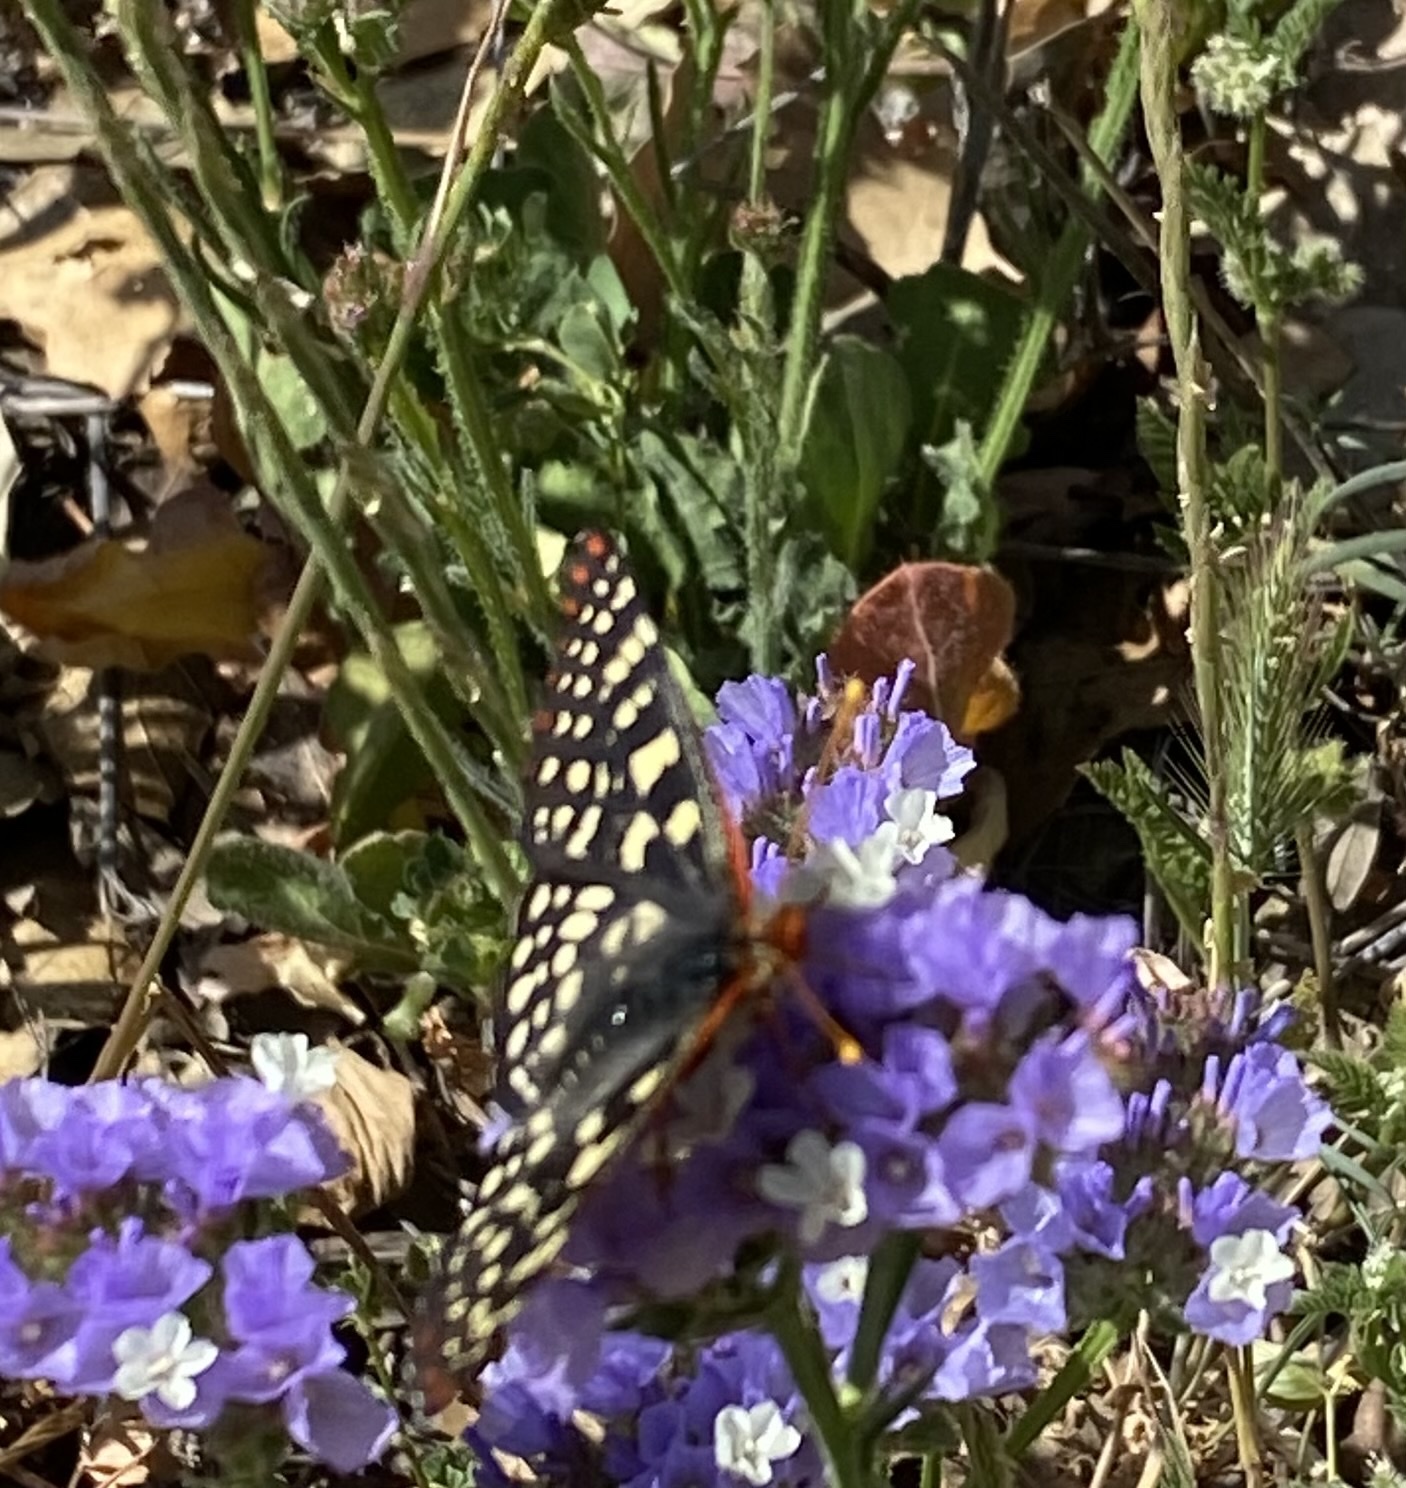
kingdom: Animalia
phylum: Arthropoda
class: Insecta
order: Lepidoptera
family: Nymphalidae
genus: Occidryas
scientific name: Occidryas chalcedona
